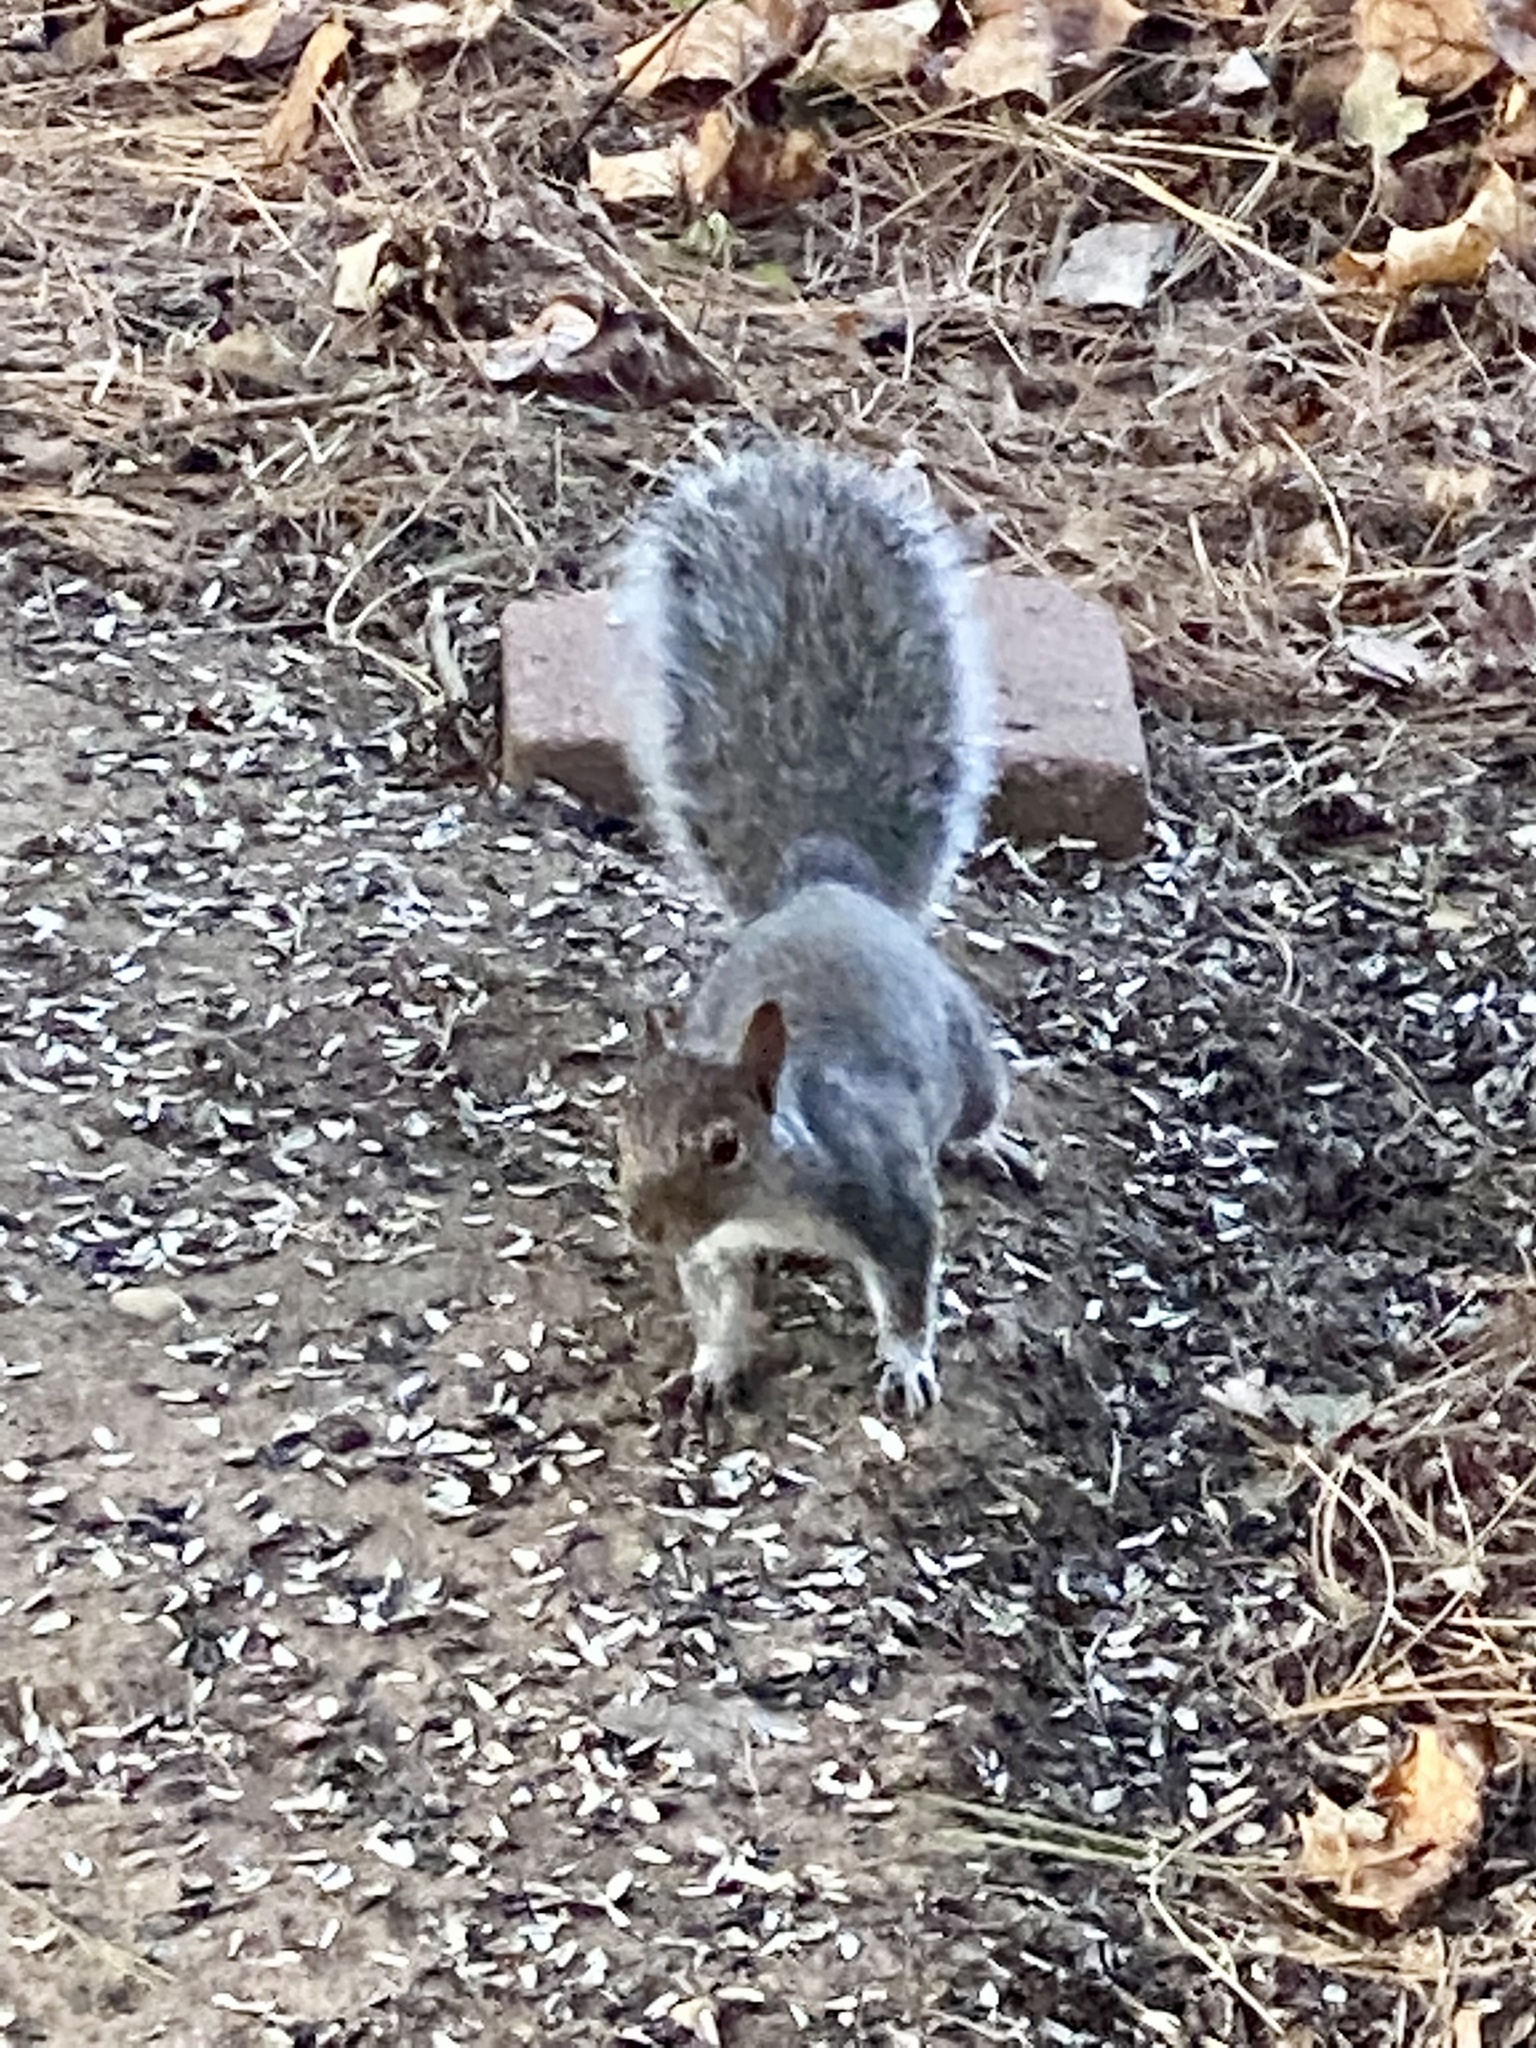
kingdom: Animalia
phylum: Chordata
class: Mammalia
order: Rodentia
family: Sciuridae
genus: Sciurus
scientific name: Sciurus carolinensis
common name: Eastern gray squirrel
